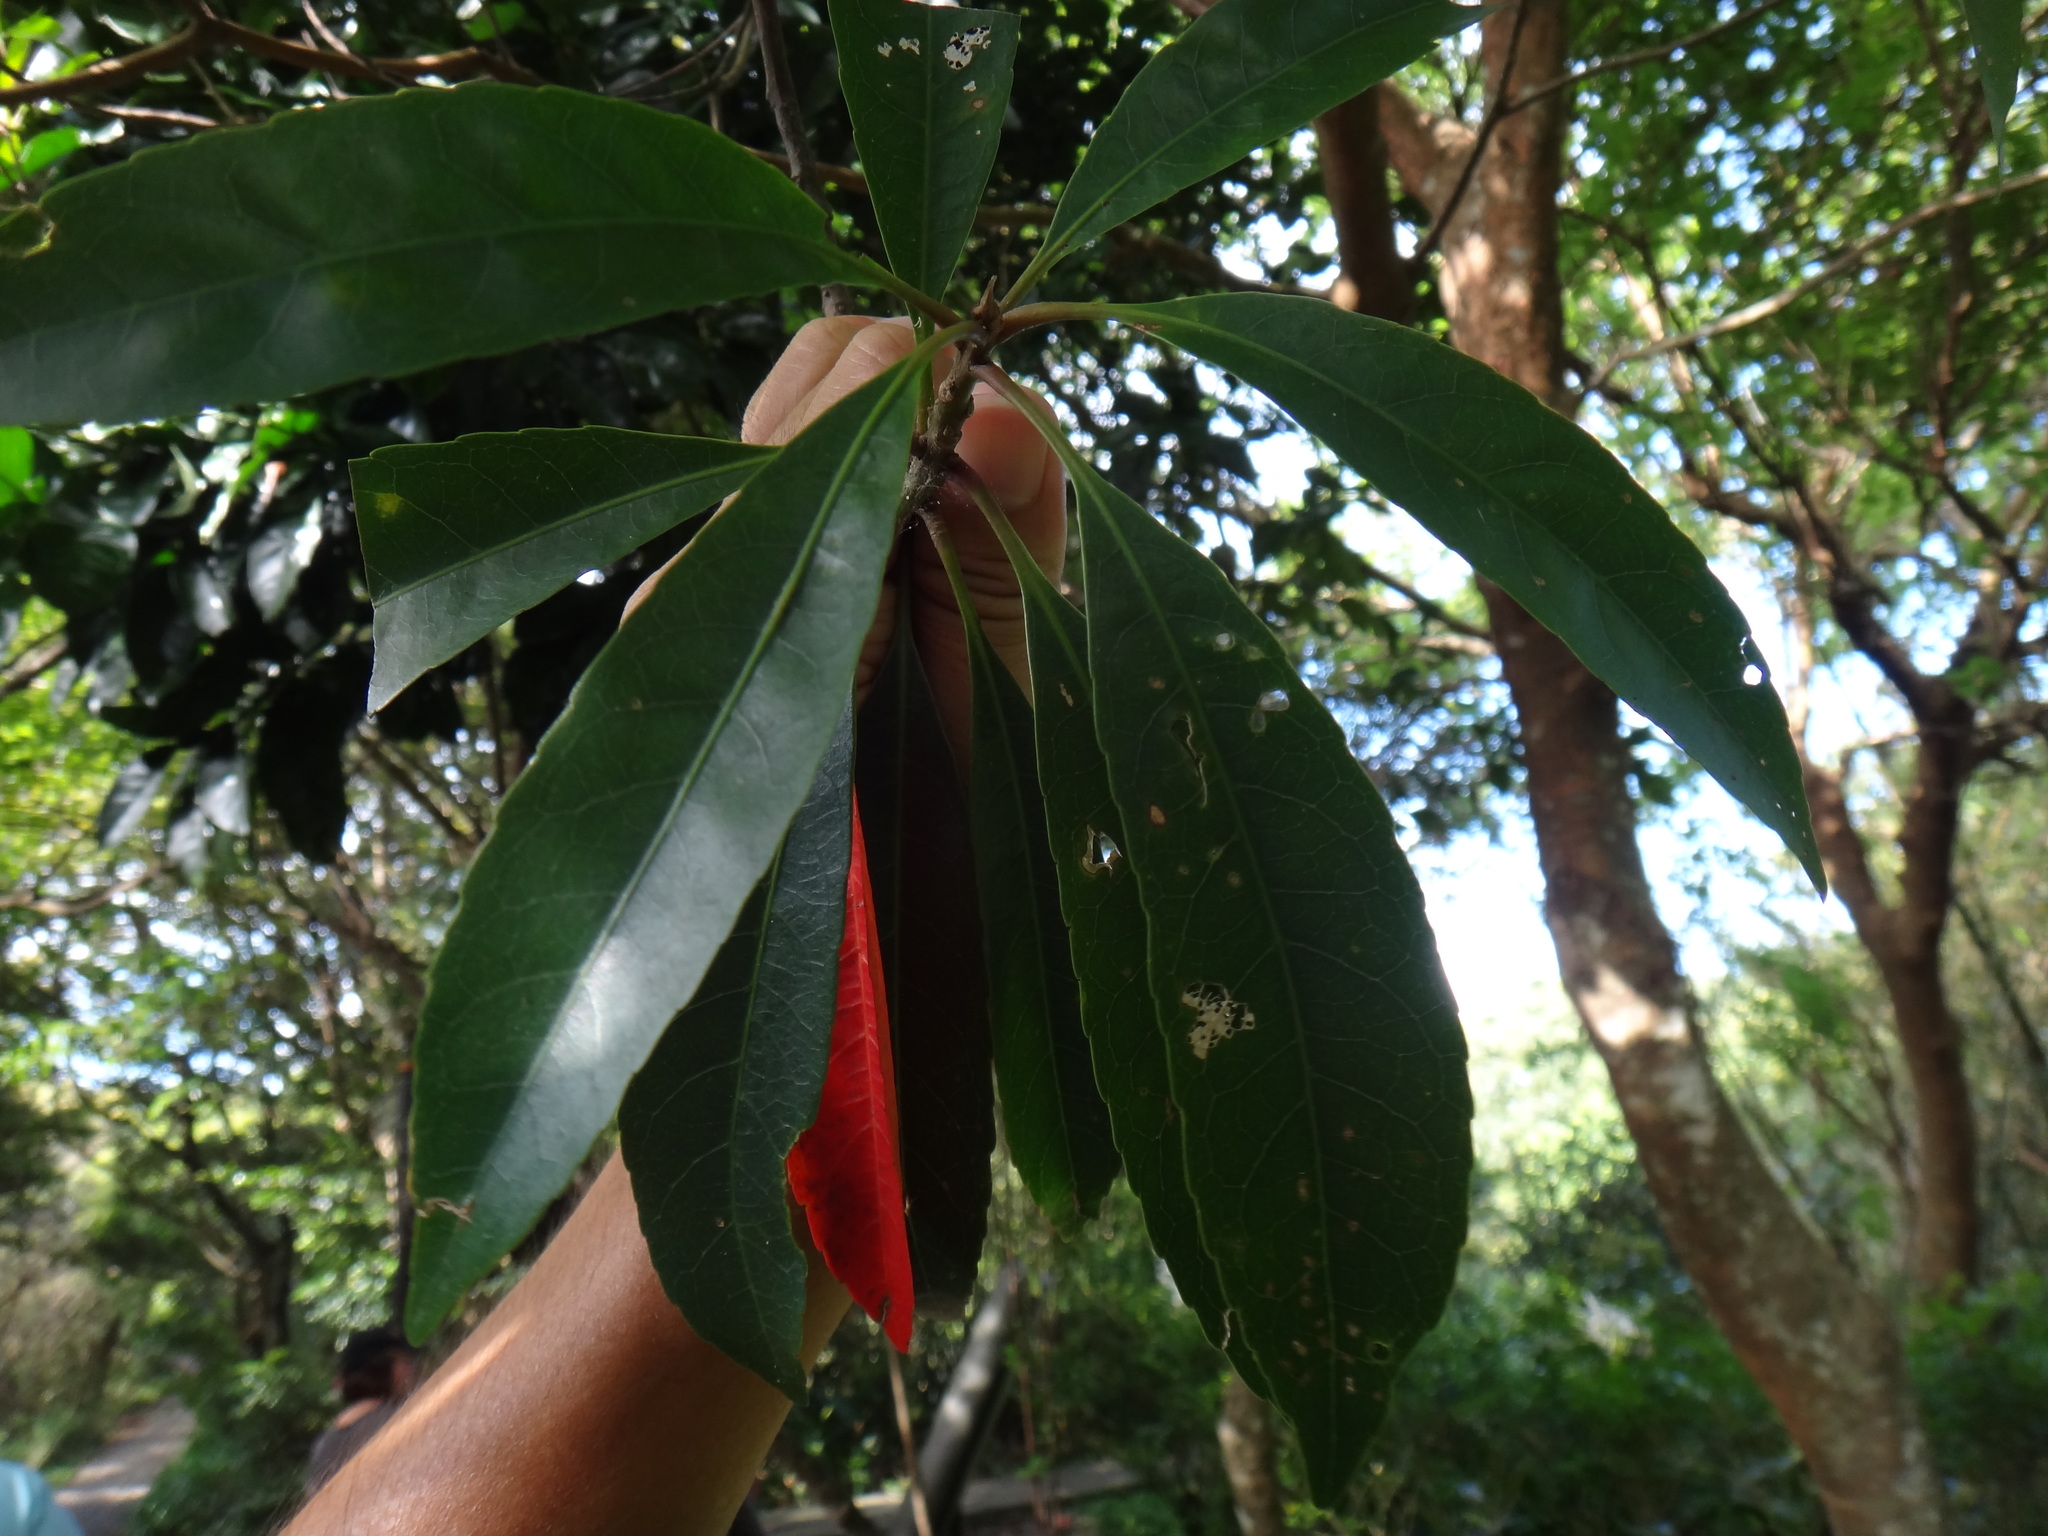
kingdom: Plantae
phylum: Tracheophyta
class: Magnoliopsida
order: Oxalidales
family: Elaeocarpaceae
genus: Elaeocarpus
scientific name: Elaeocarpus decipiens
